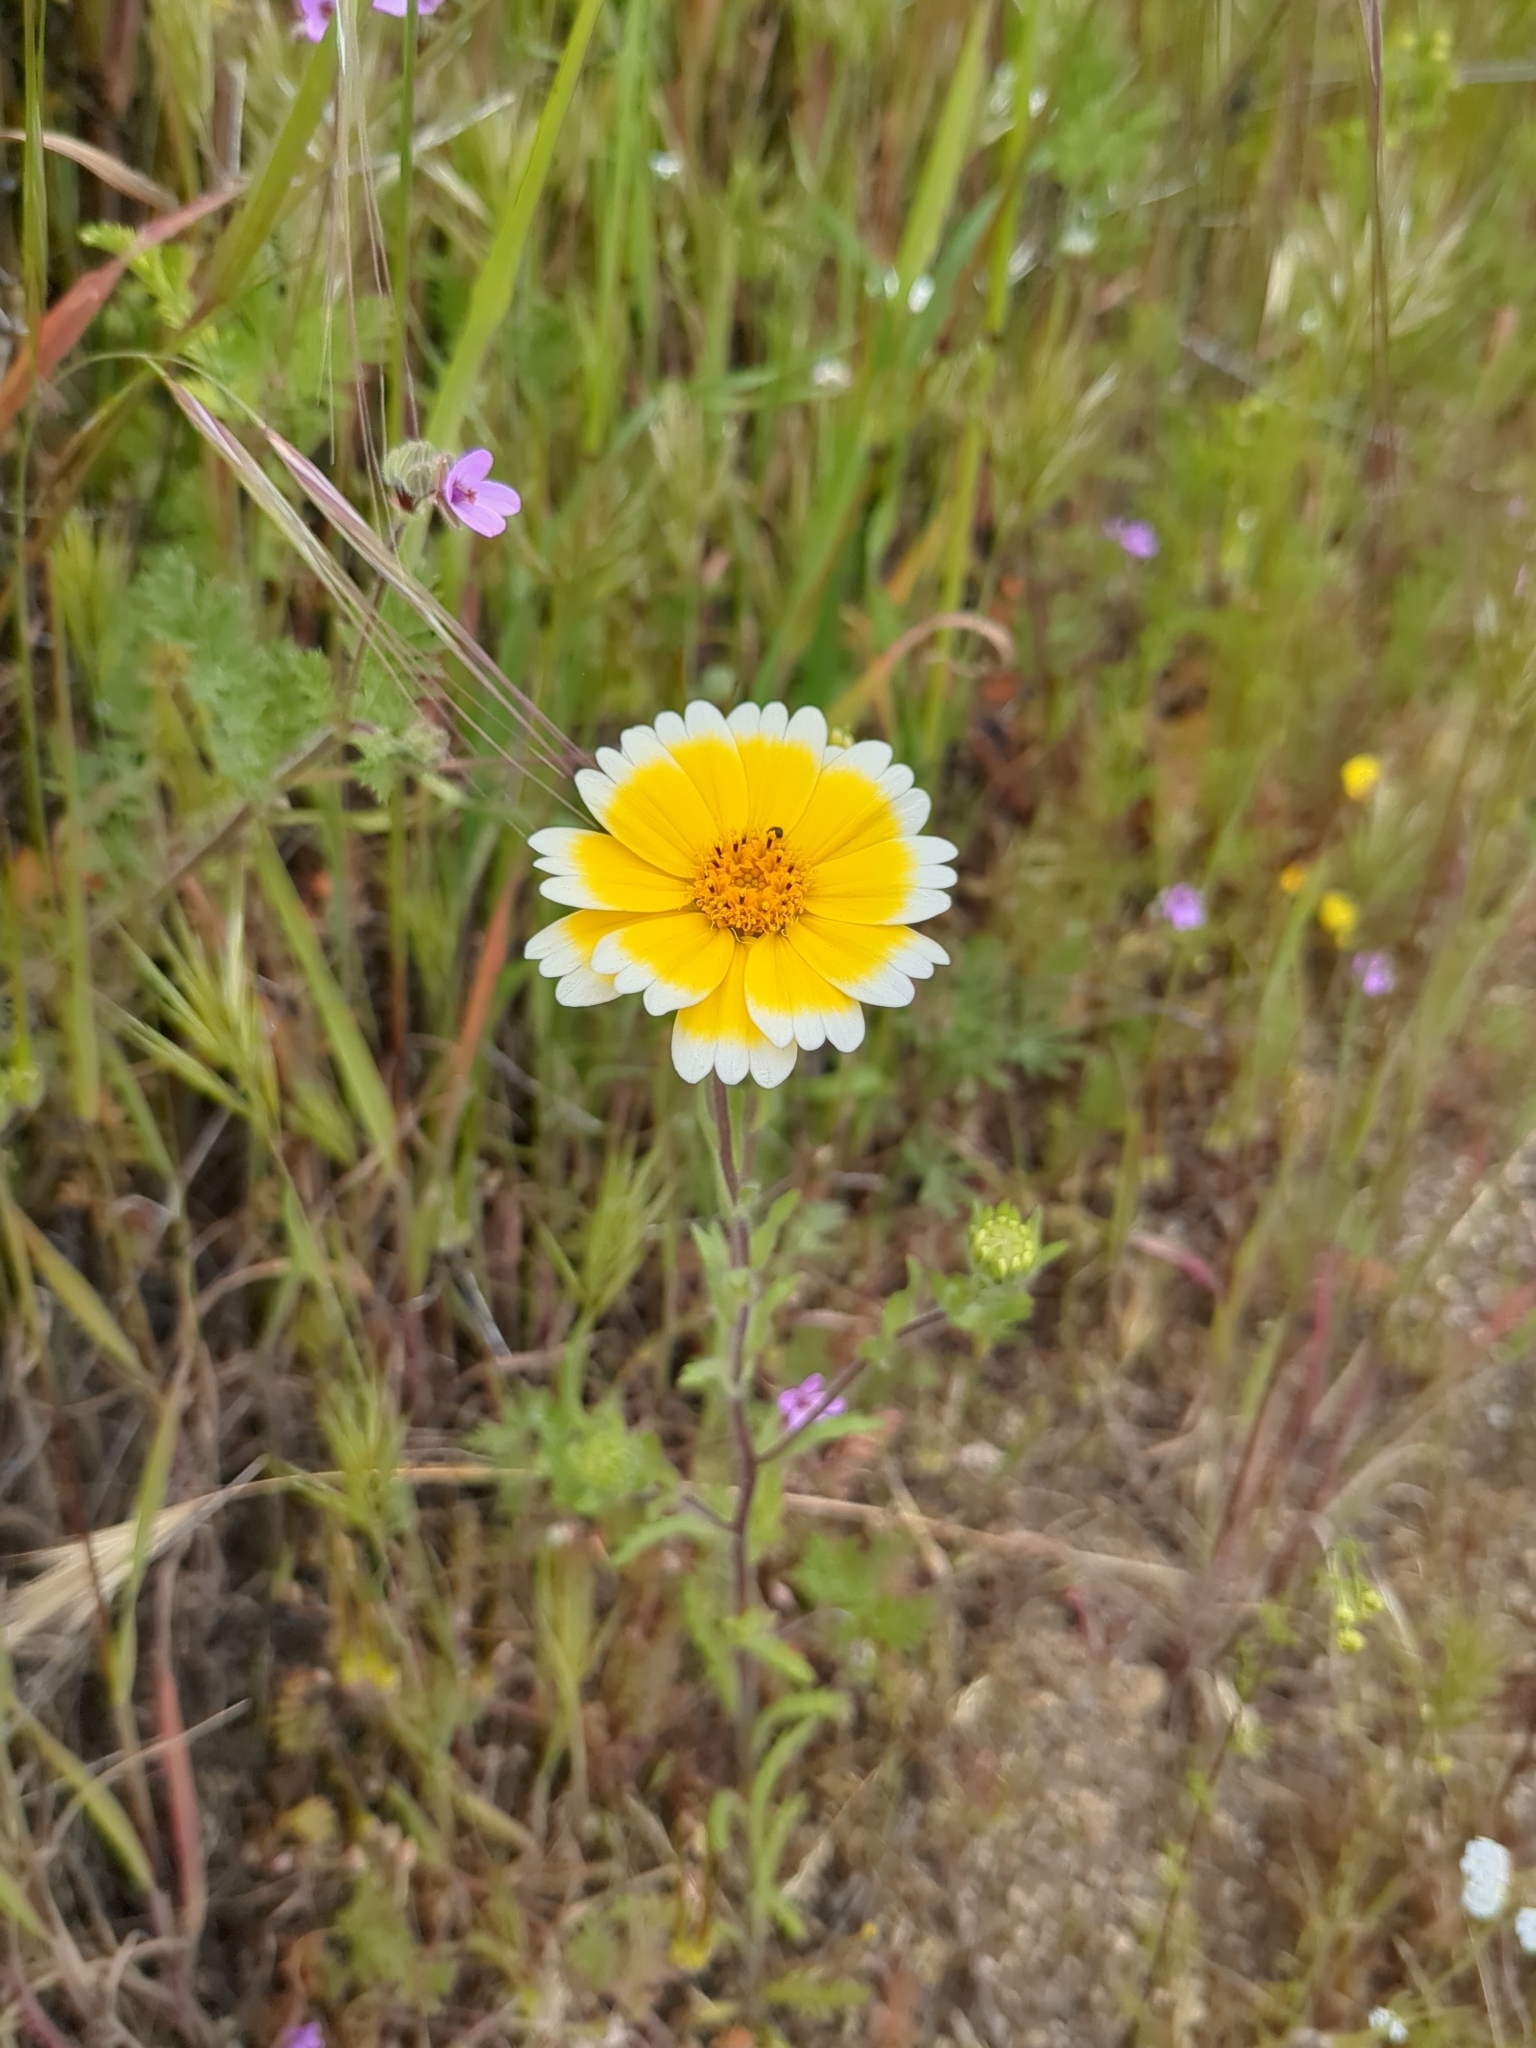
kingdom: Plantae
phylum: Tracheophyta
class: Magnoliopsida
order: Asterales
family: Asteraceae
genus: Layia
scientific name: Layia platyglossa
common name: Tidy-tips
